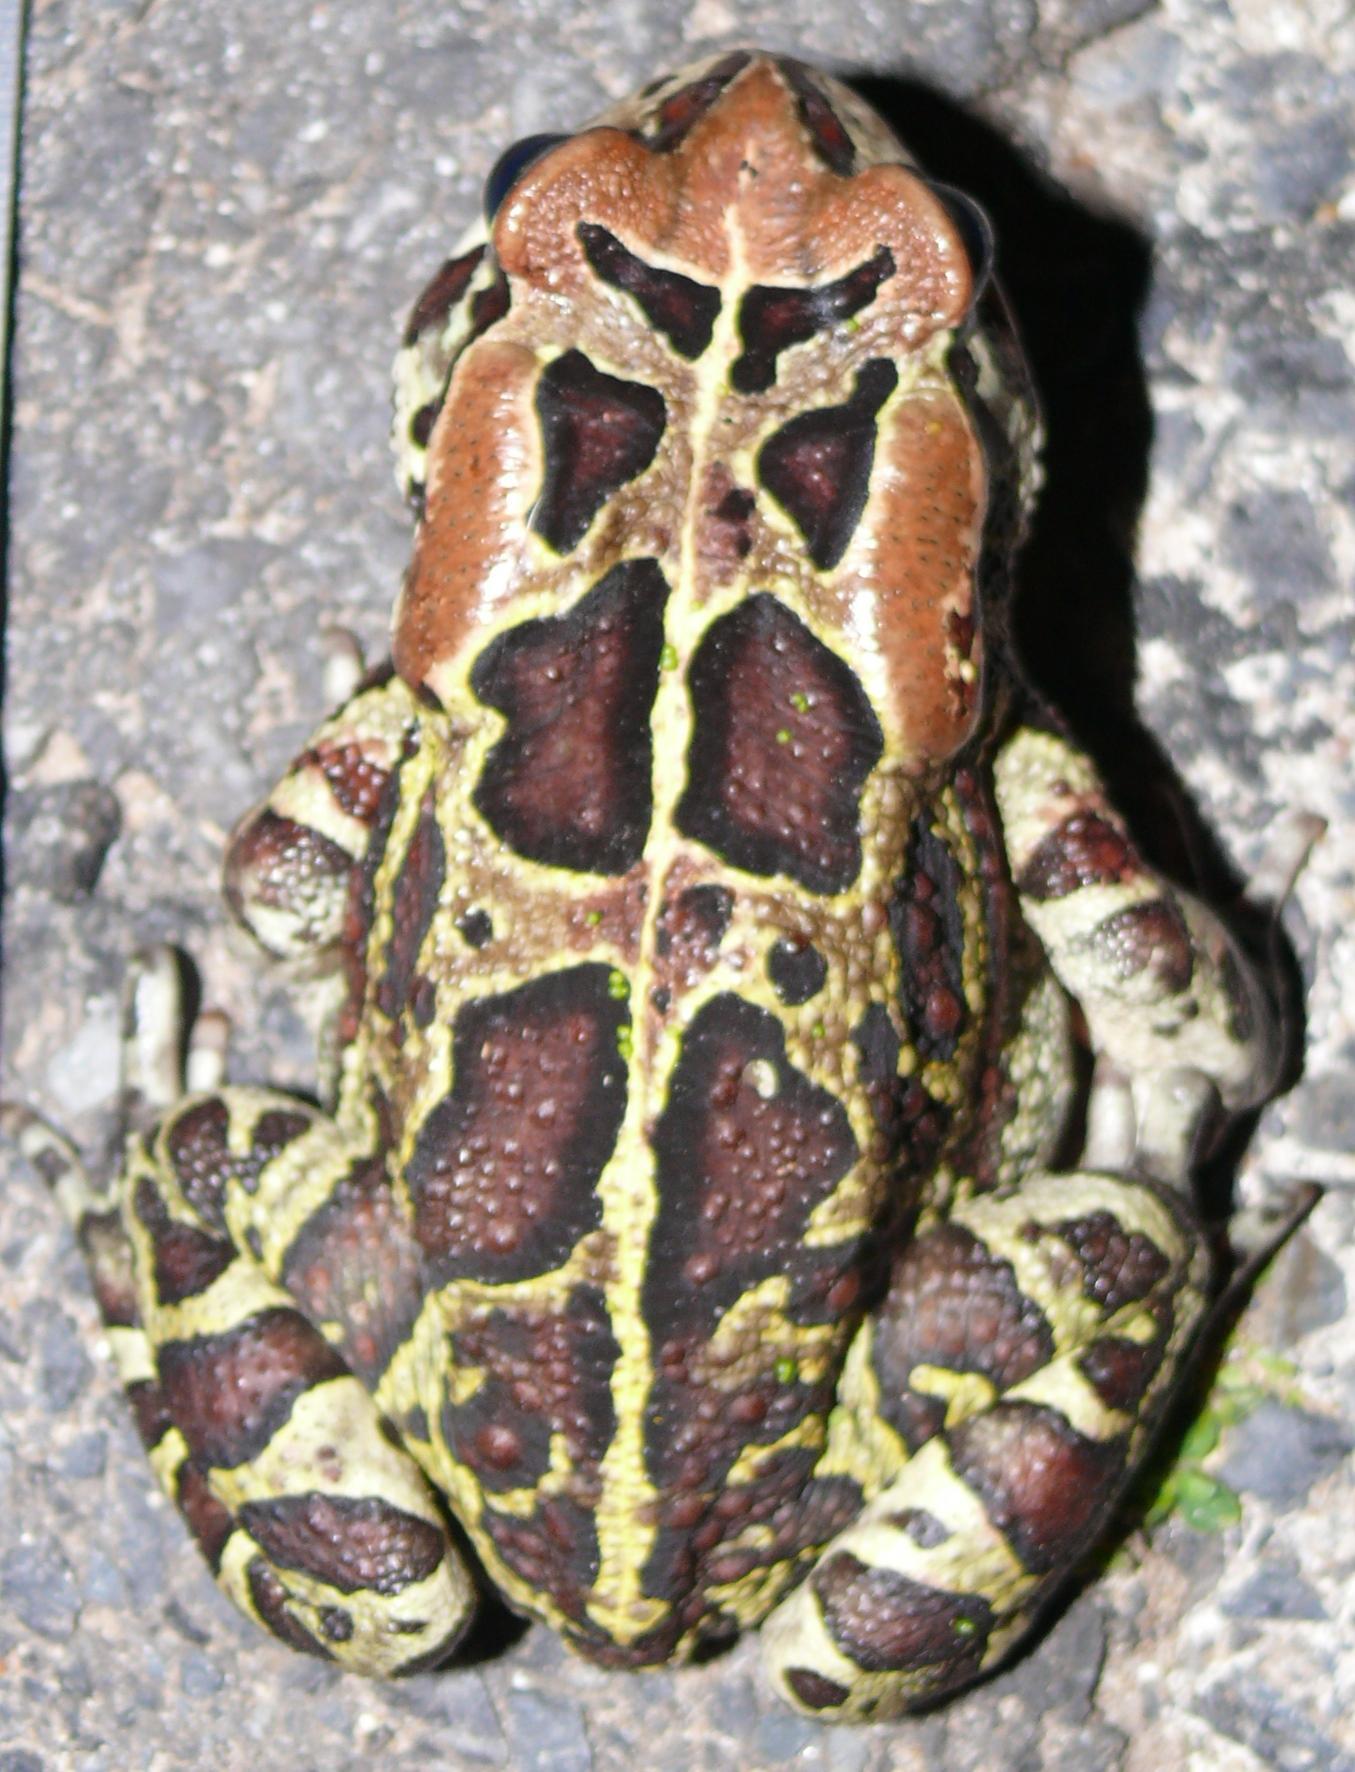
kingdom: Animalia
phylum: Chordata
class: Amphibia
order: Anura
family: Bufonidae
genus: Sclerophrys
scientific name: Sclerophrys pantherina
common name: Panther toad
